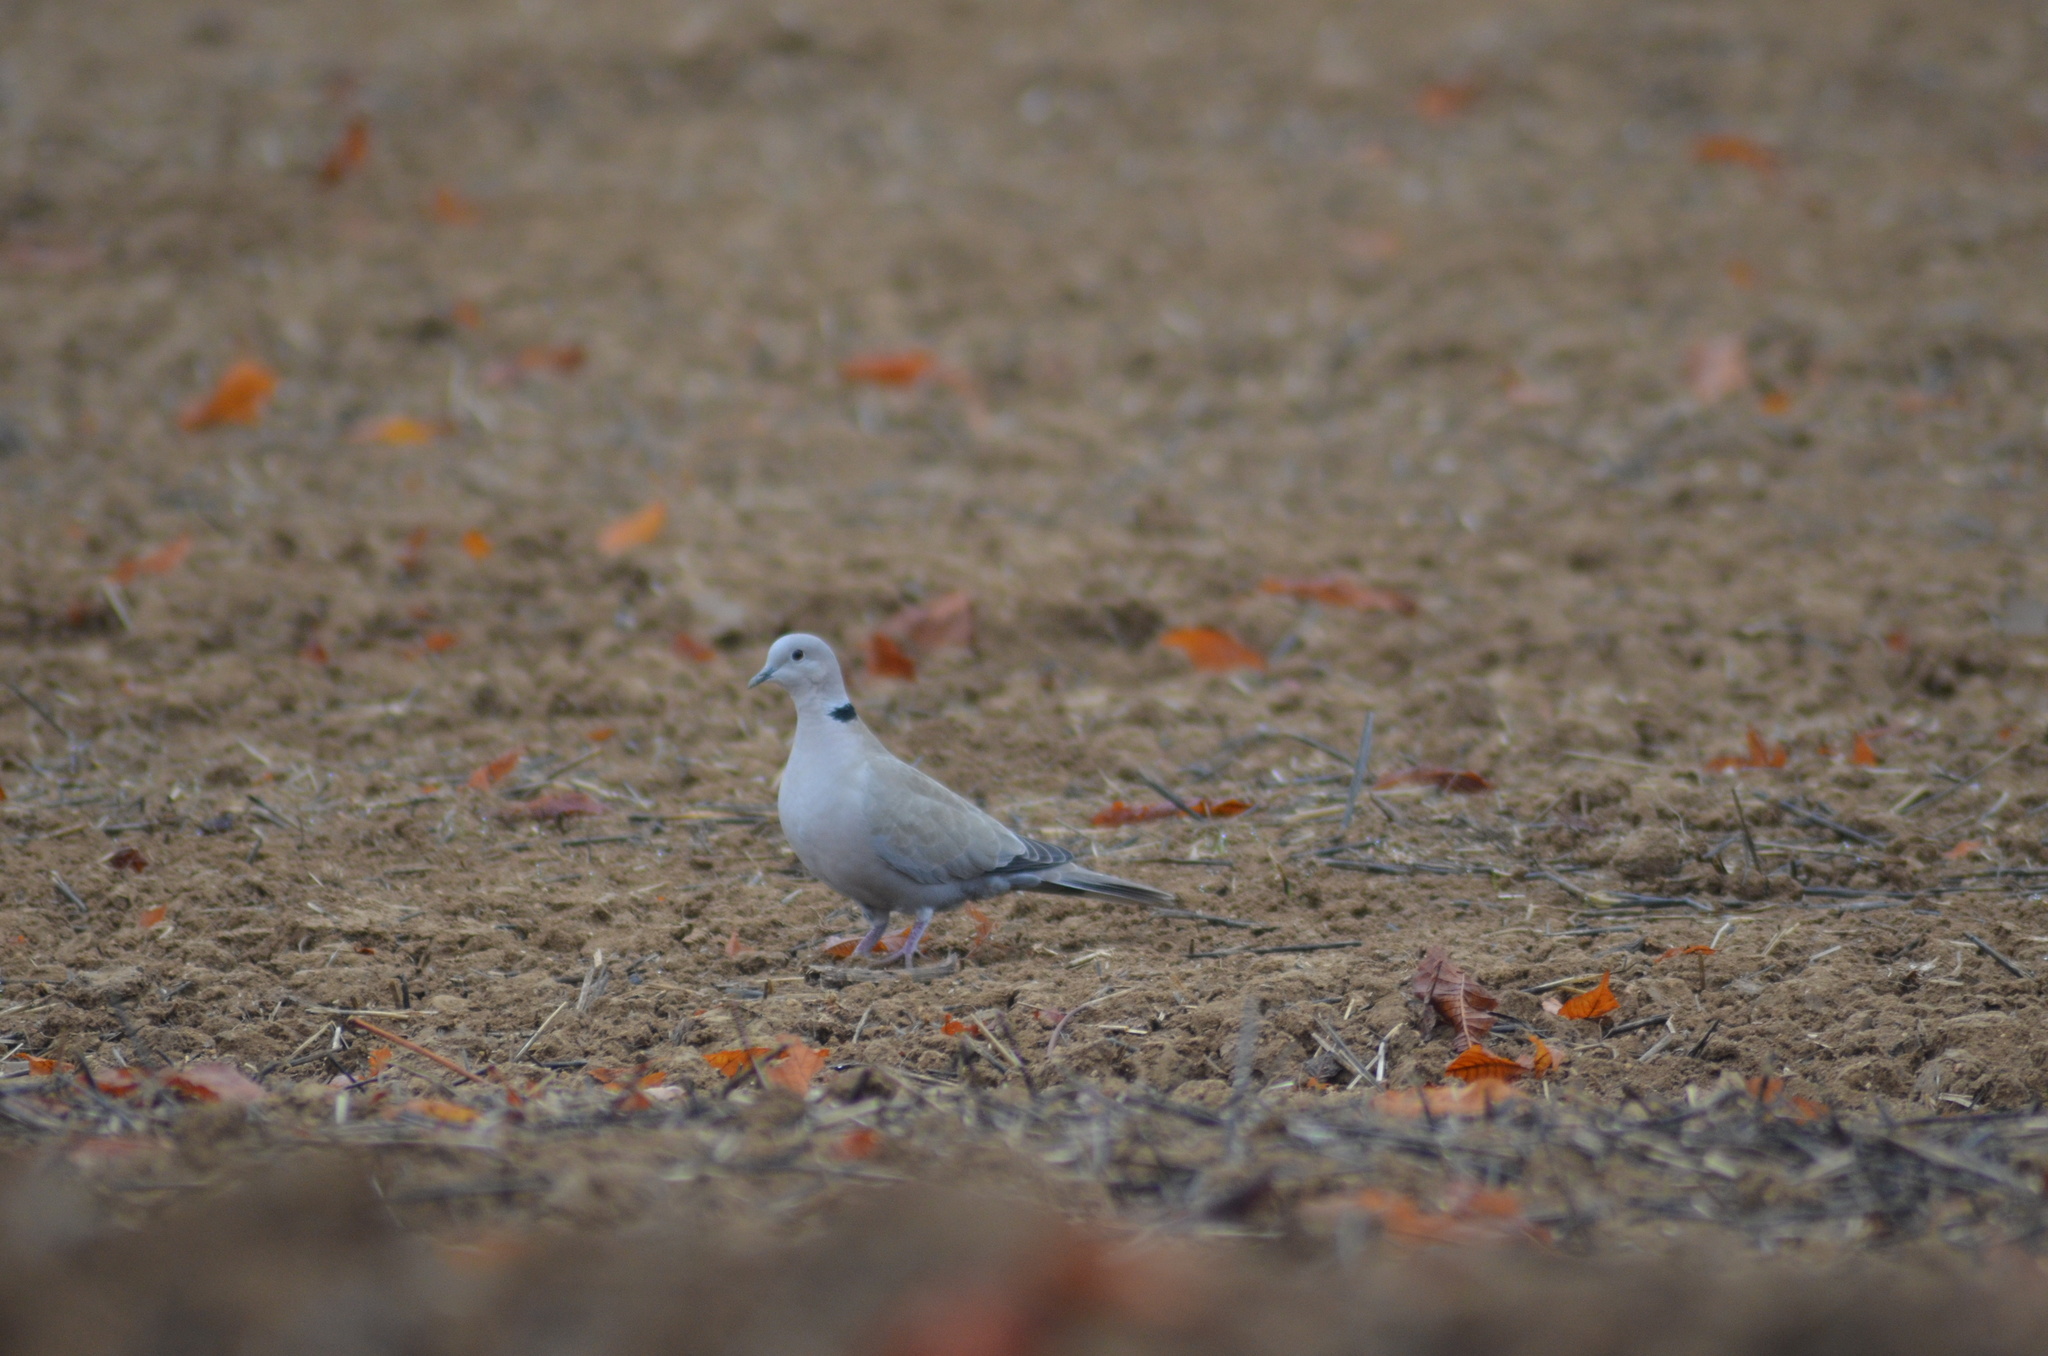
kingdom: Animalia
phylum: Chordata
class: Aves
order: Columbiformes
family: Columbidae
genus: Streptopelia
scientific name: Streptopelia decaocto
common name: Eurasian collared dove
